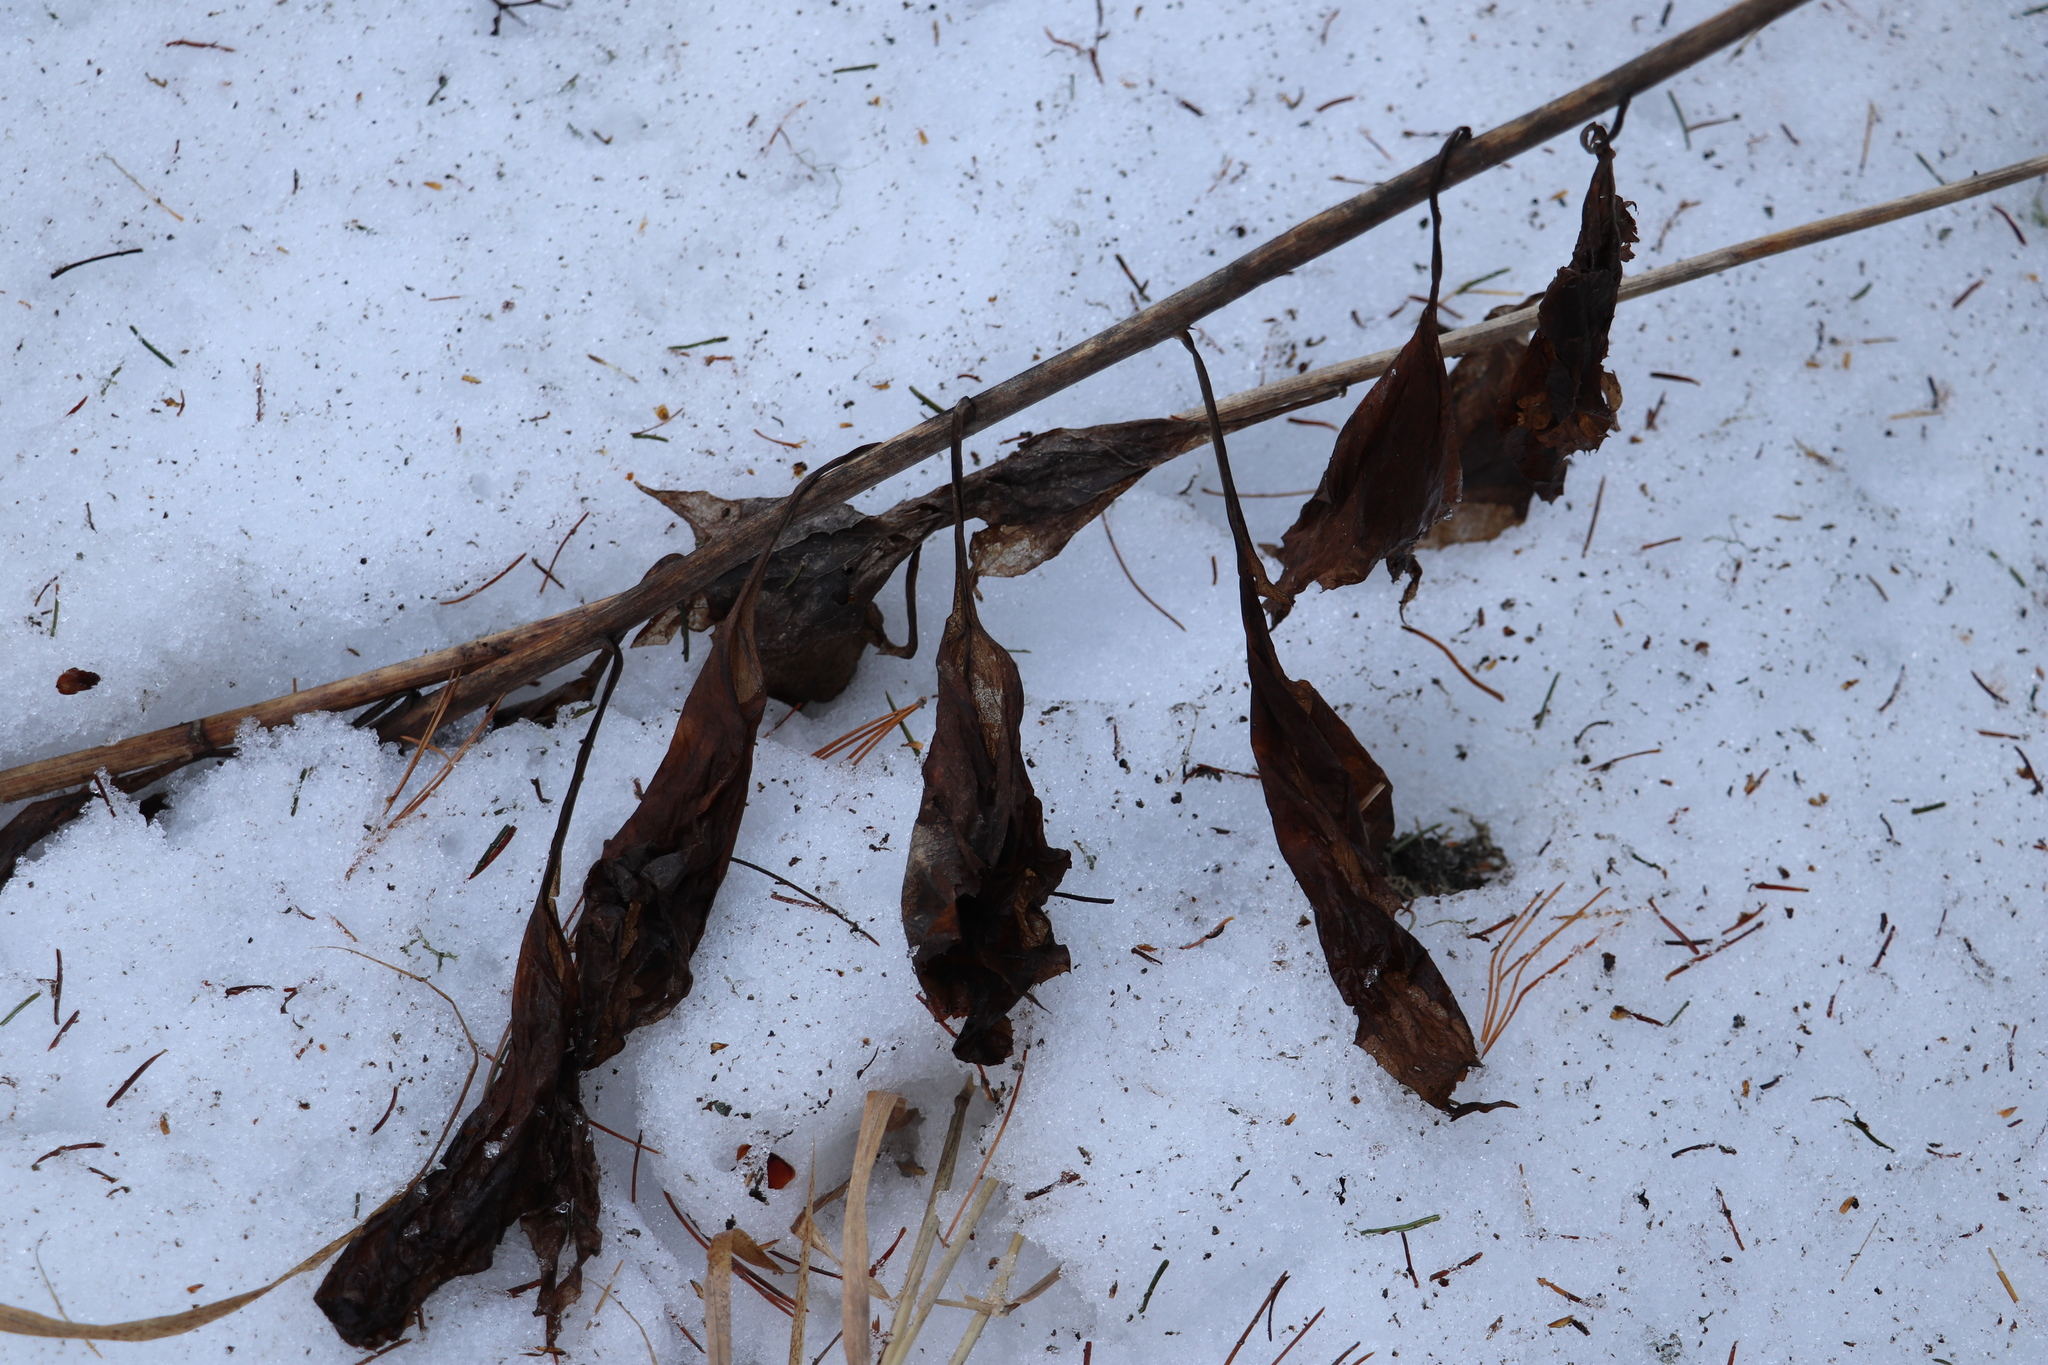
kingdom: Plantae
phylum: Tracheophyta
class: Magnoliopsida
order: Asterales
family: Asteraceae
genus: Parasenecio
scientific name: Parasenecio hastatus
